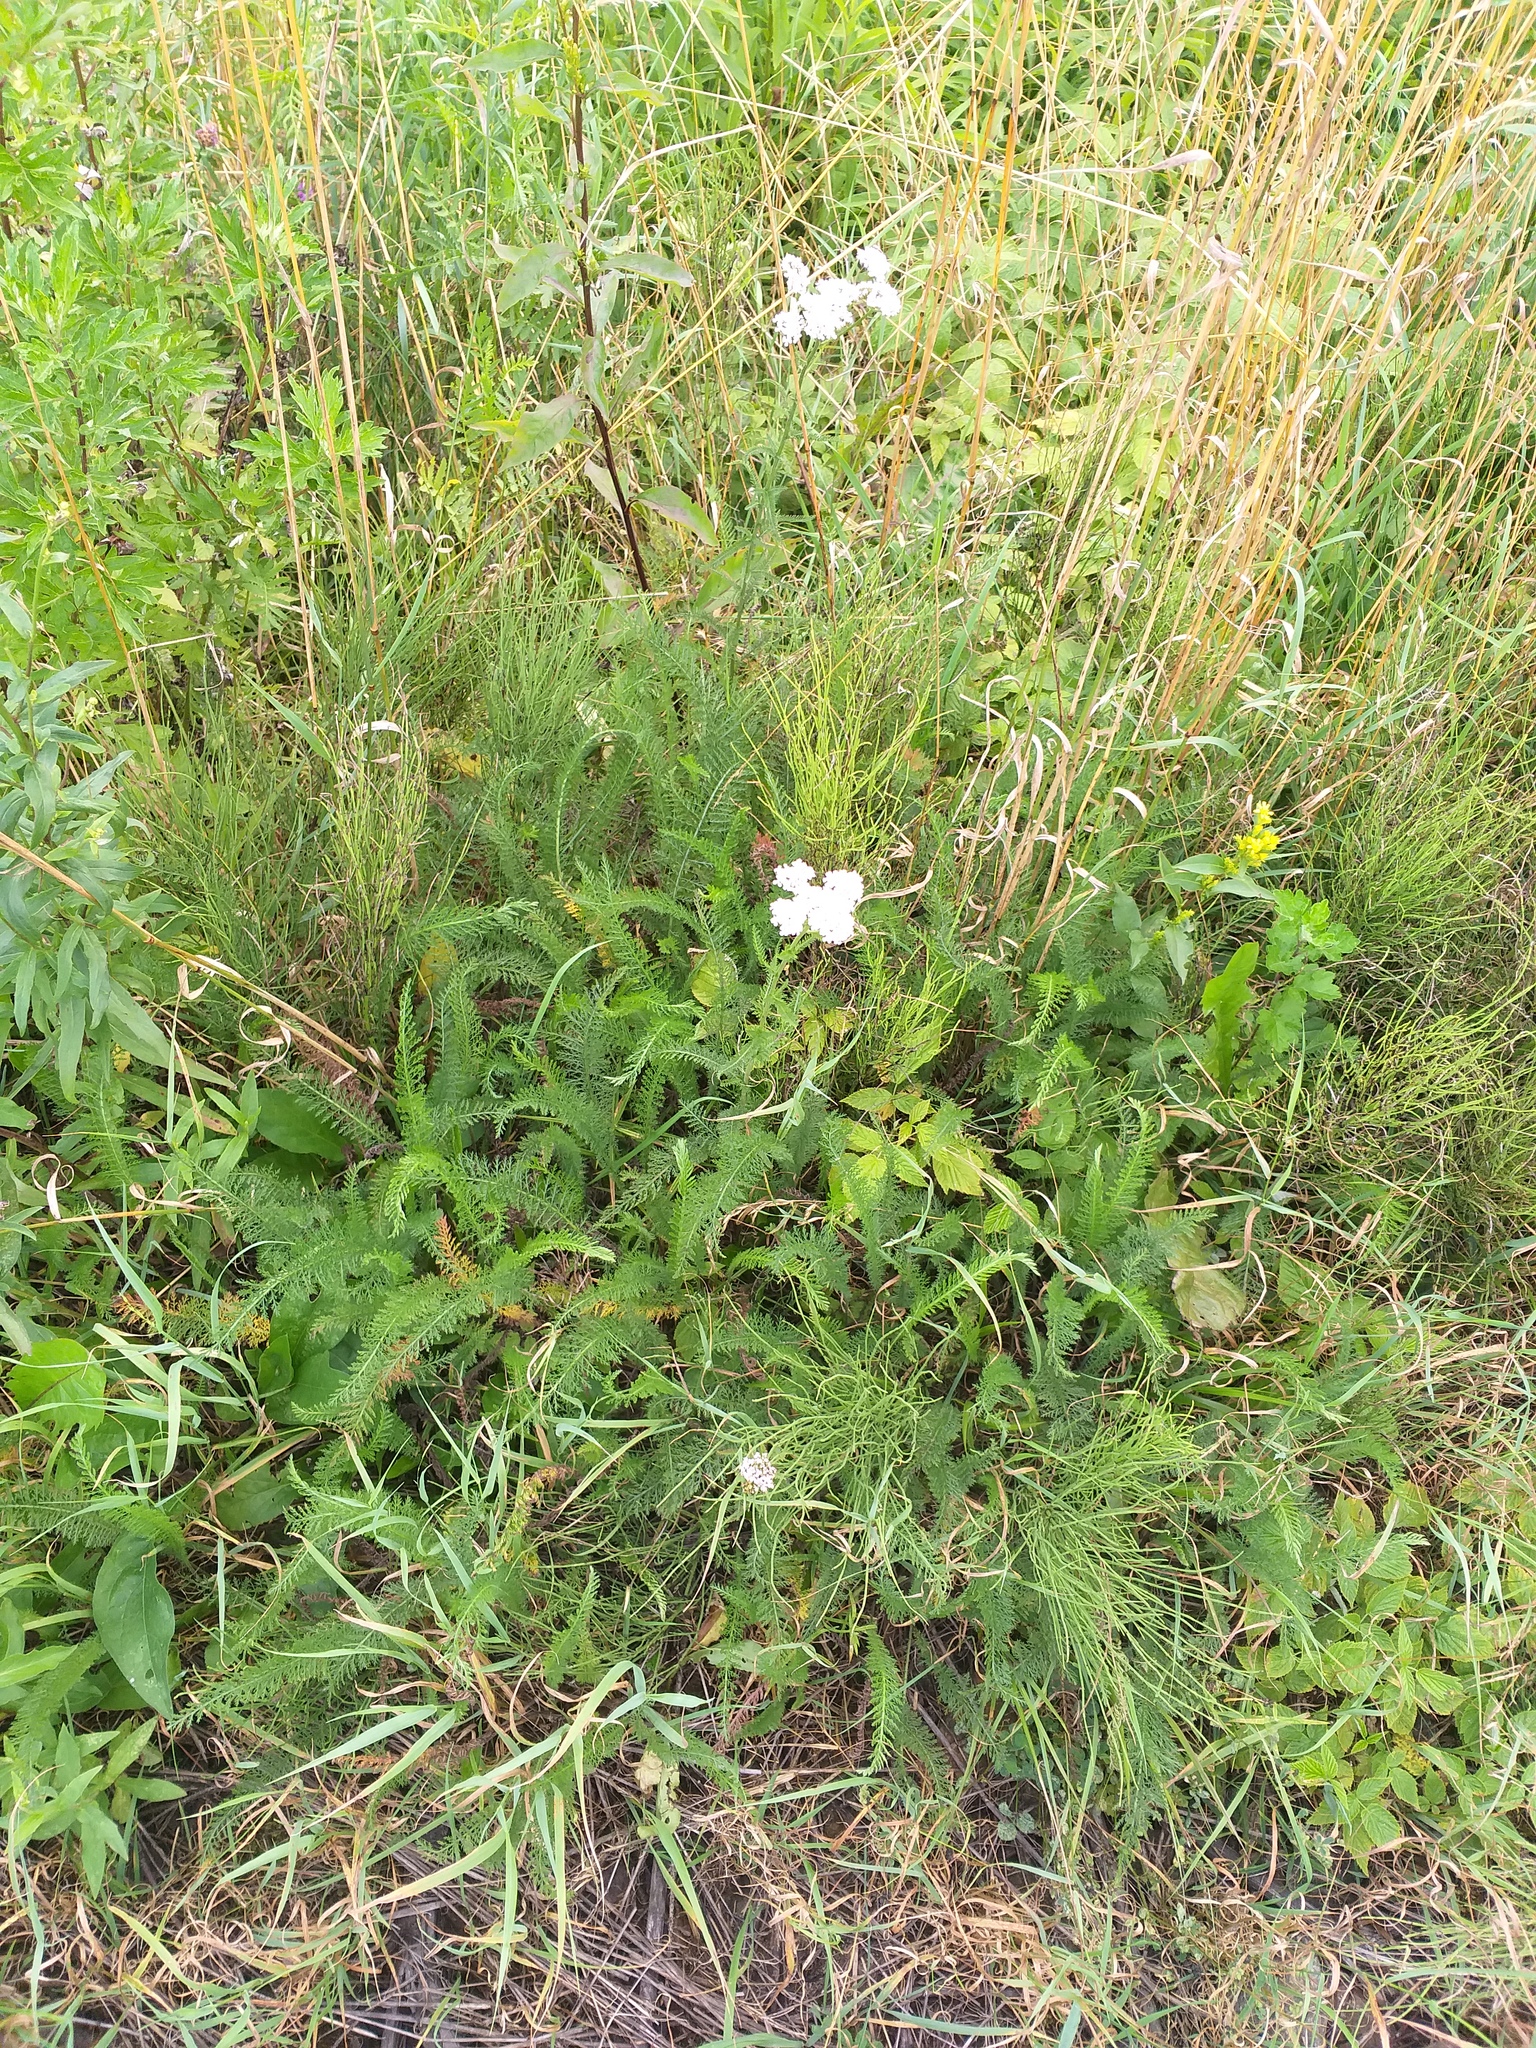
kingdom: Plantae
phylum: Tracheophyta
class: Magnoliopsida
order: Asterales
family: Asteraceae
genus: Achillea
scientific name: Achillea millefolium
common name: Yarrow
